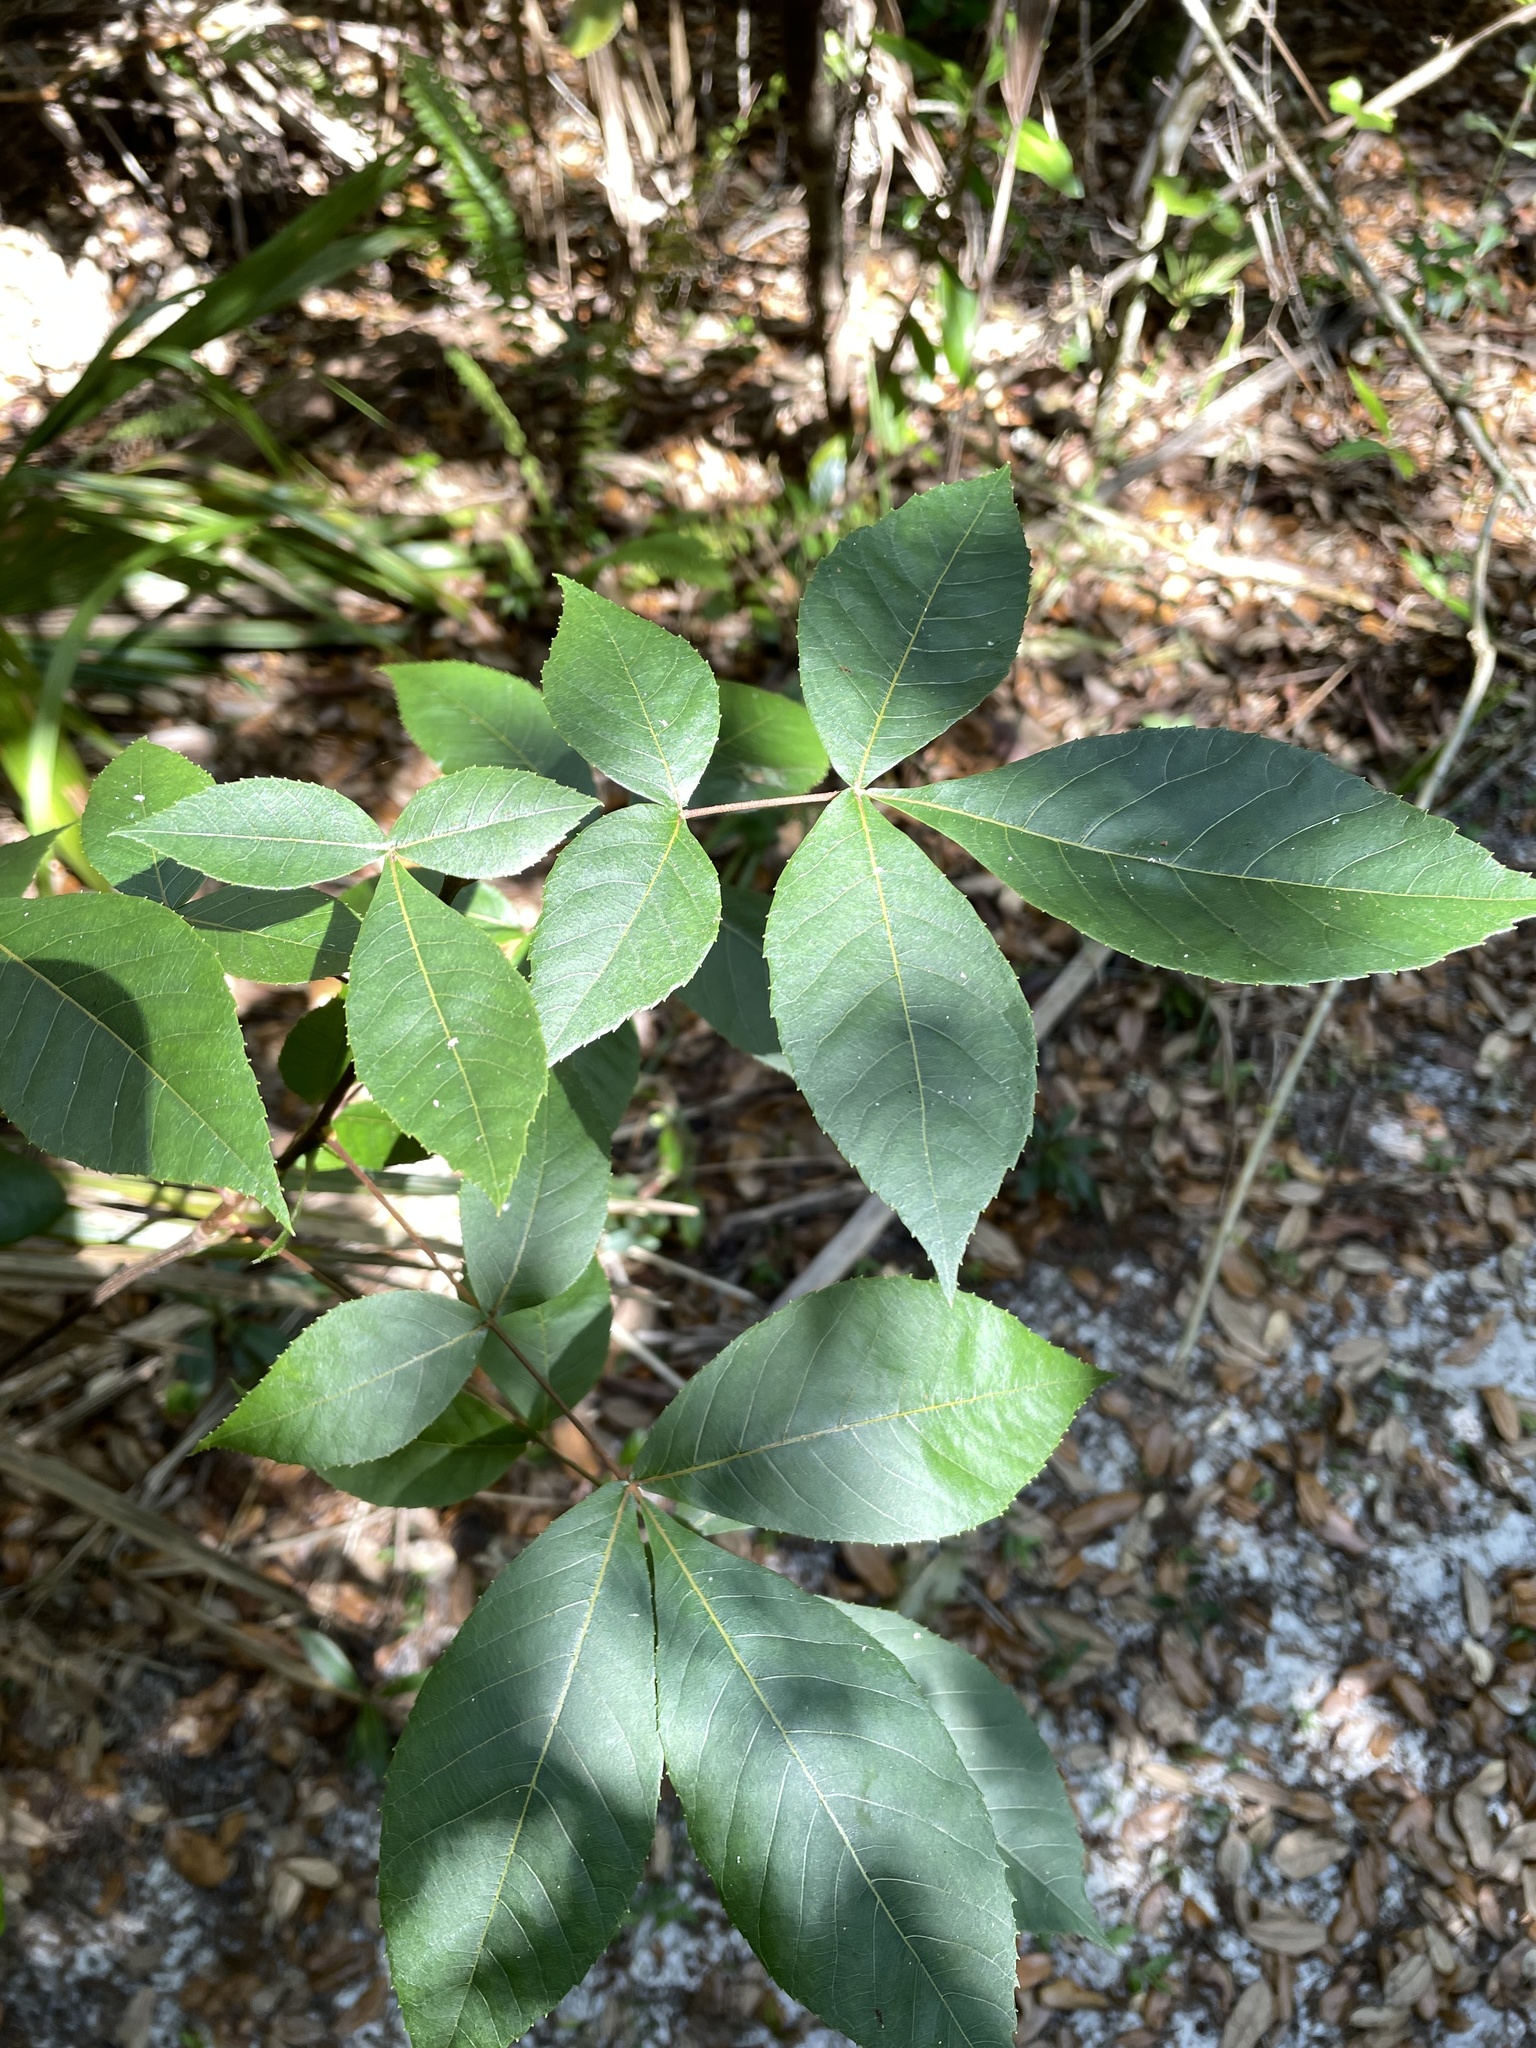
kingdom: Plantae
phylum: Tracheophyta
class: Magnoliopsida
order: Fagales
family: Juglandaceae
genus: Carya
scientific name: Carya floridana
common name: Scrub hickory
